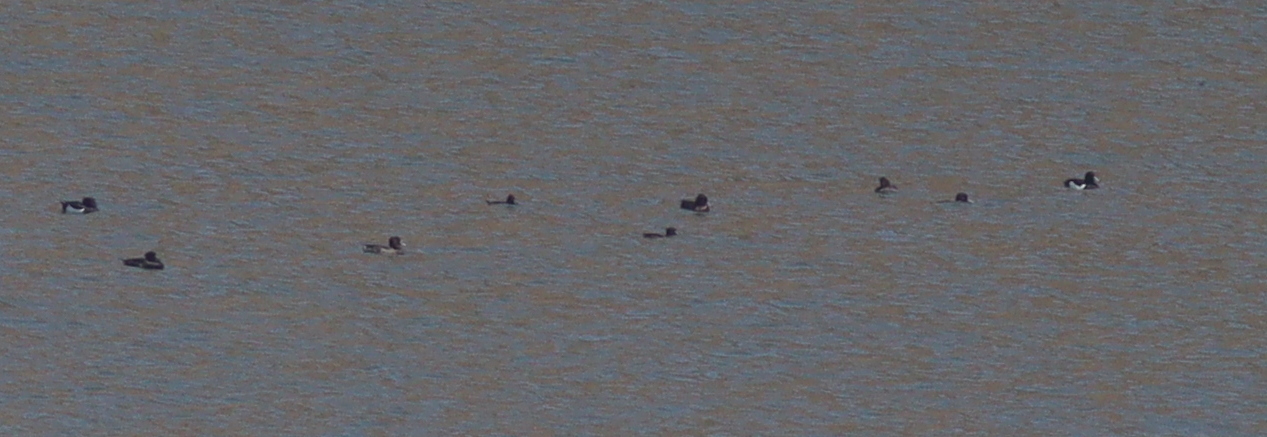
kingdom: Animalia
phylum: Chordata
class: Aves
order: Anseriformes
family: Anatidae
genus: Aythya
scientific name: Aythya fuligula
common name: Tufted duck
